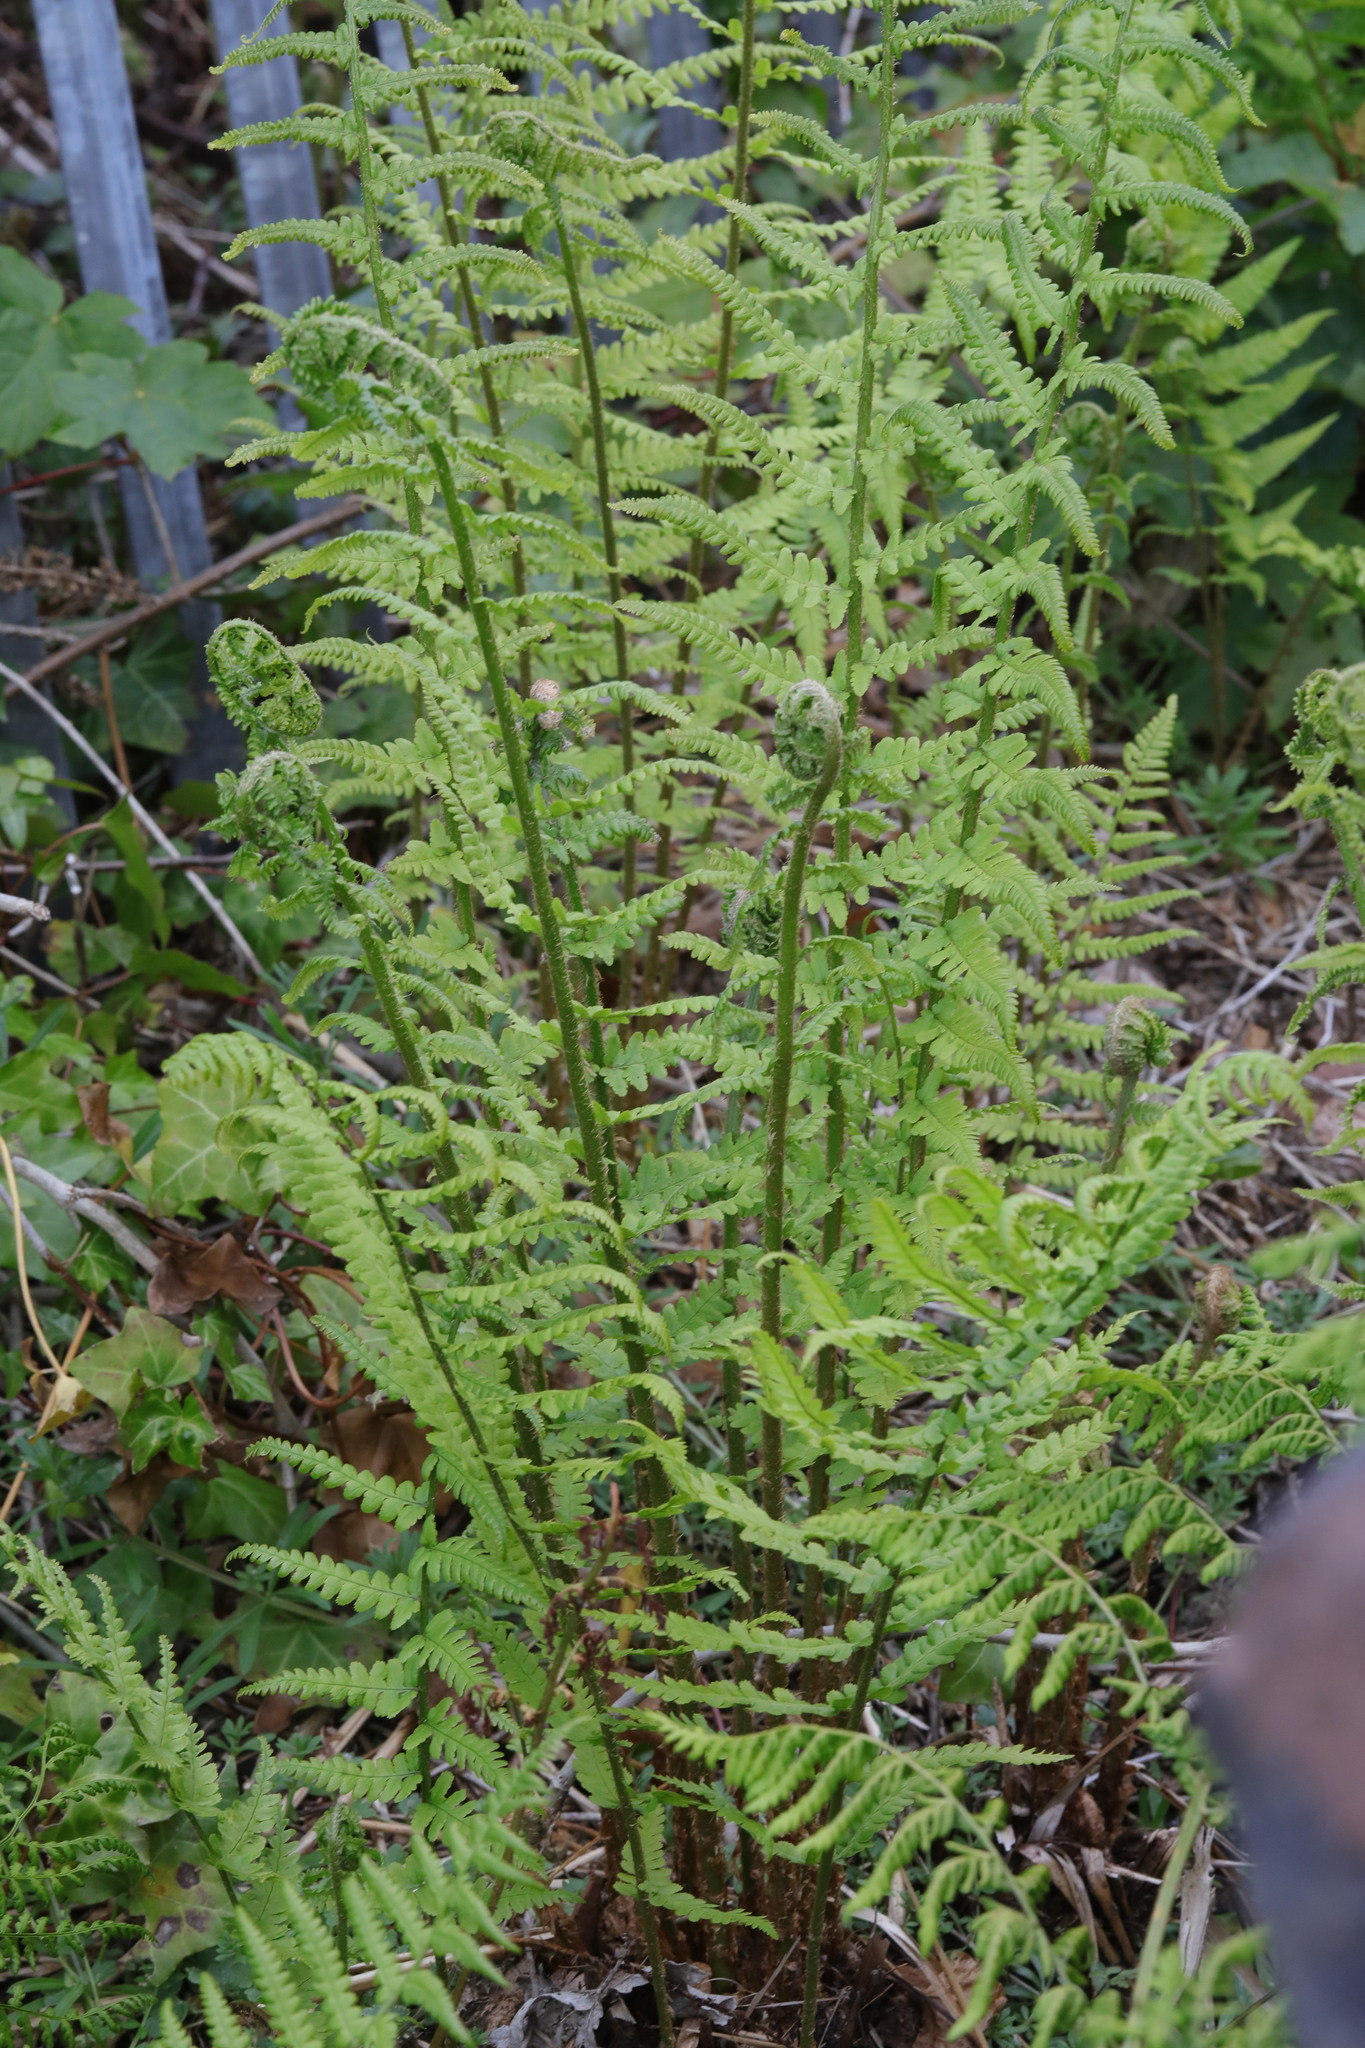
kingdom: Plantae
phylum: Tracheophyta
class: Polypodiopsida
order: Polypodiales
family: Dryopteridaceae
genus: Dryopteris
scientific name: Dryopteris filix-mas
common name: Male fern
